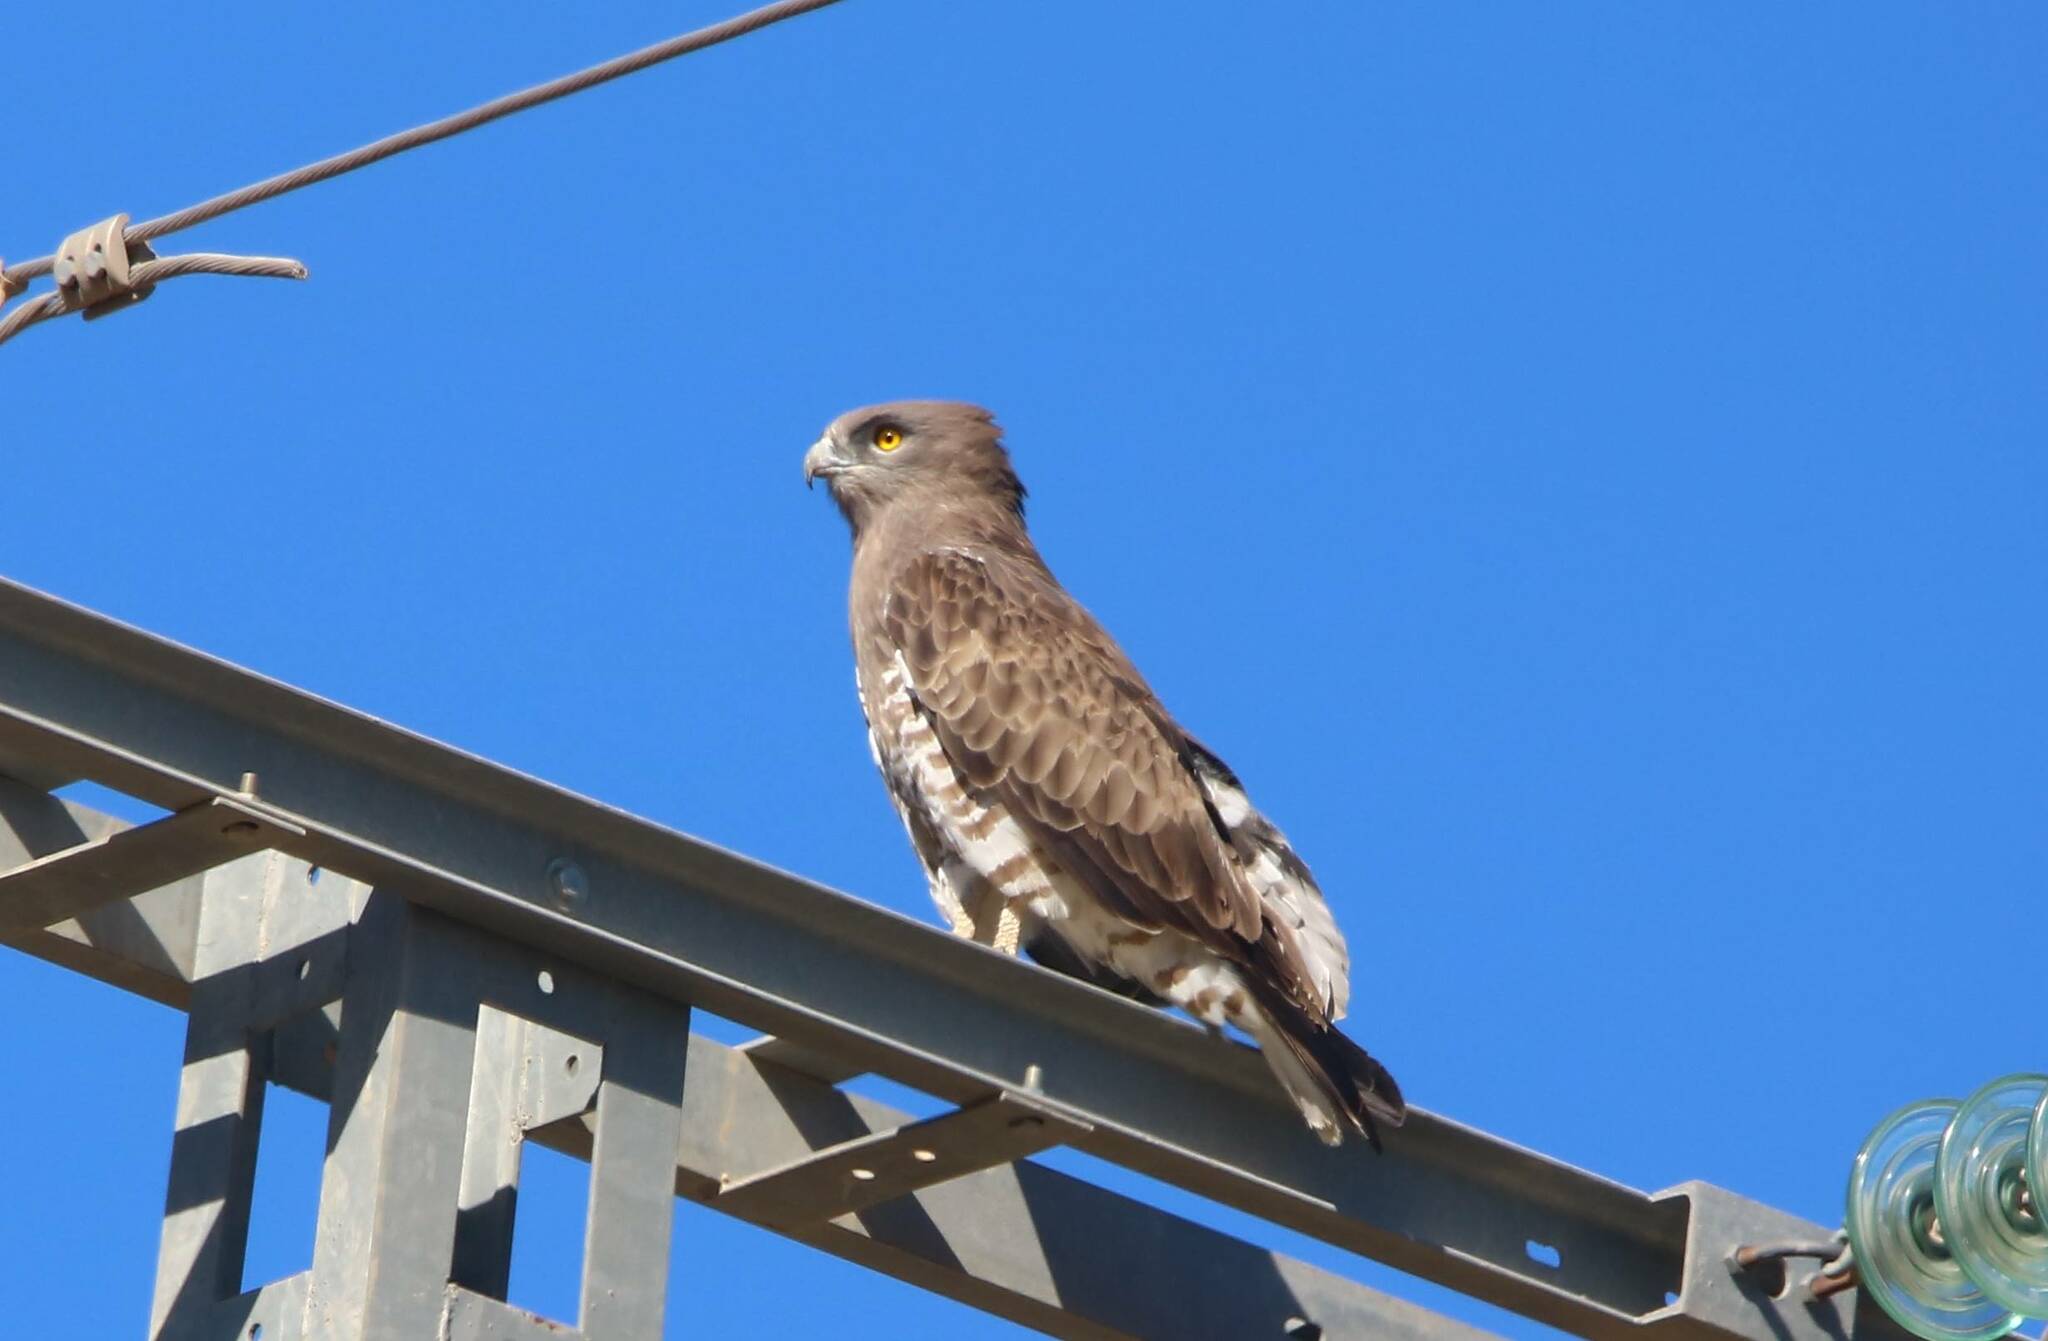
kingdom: Animalia
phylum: Chordata
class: Aves
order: Accipitriformes
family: Accipitridae
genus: Circaetus
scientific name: Circaetus gallicus
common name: Short-toed snake eagle
